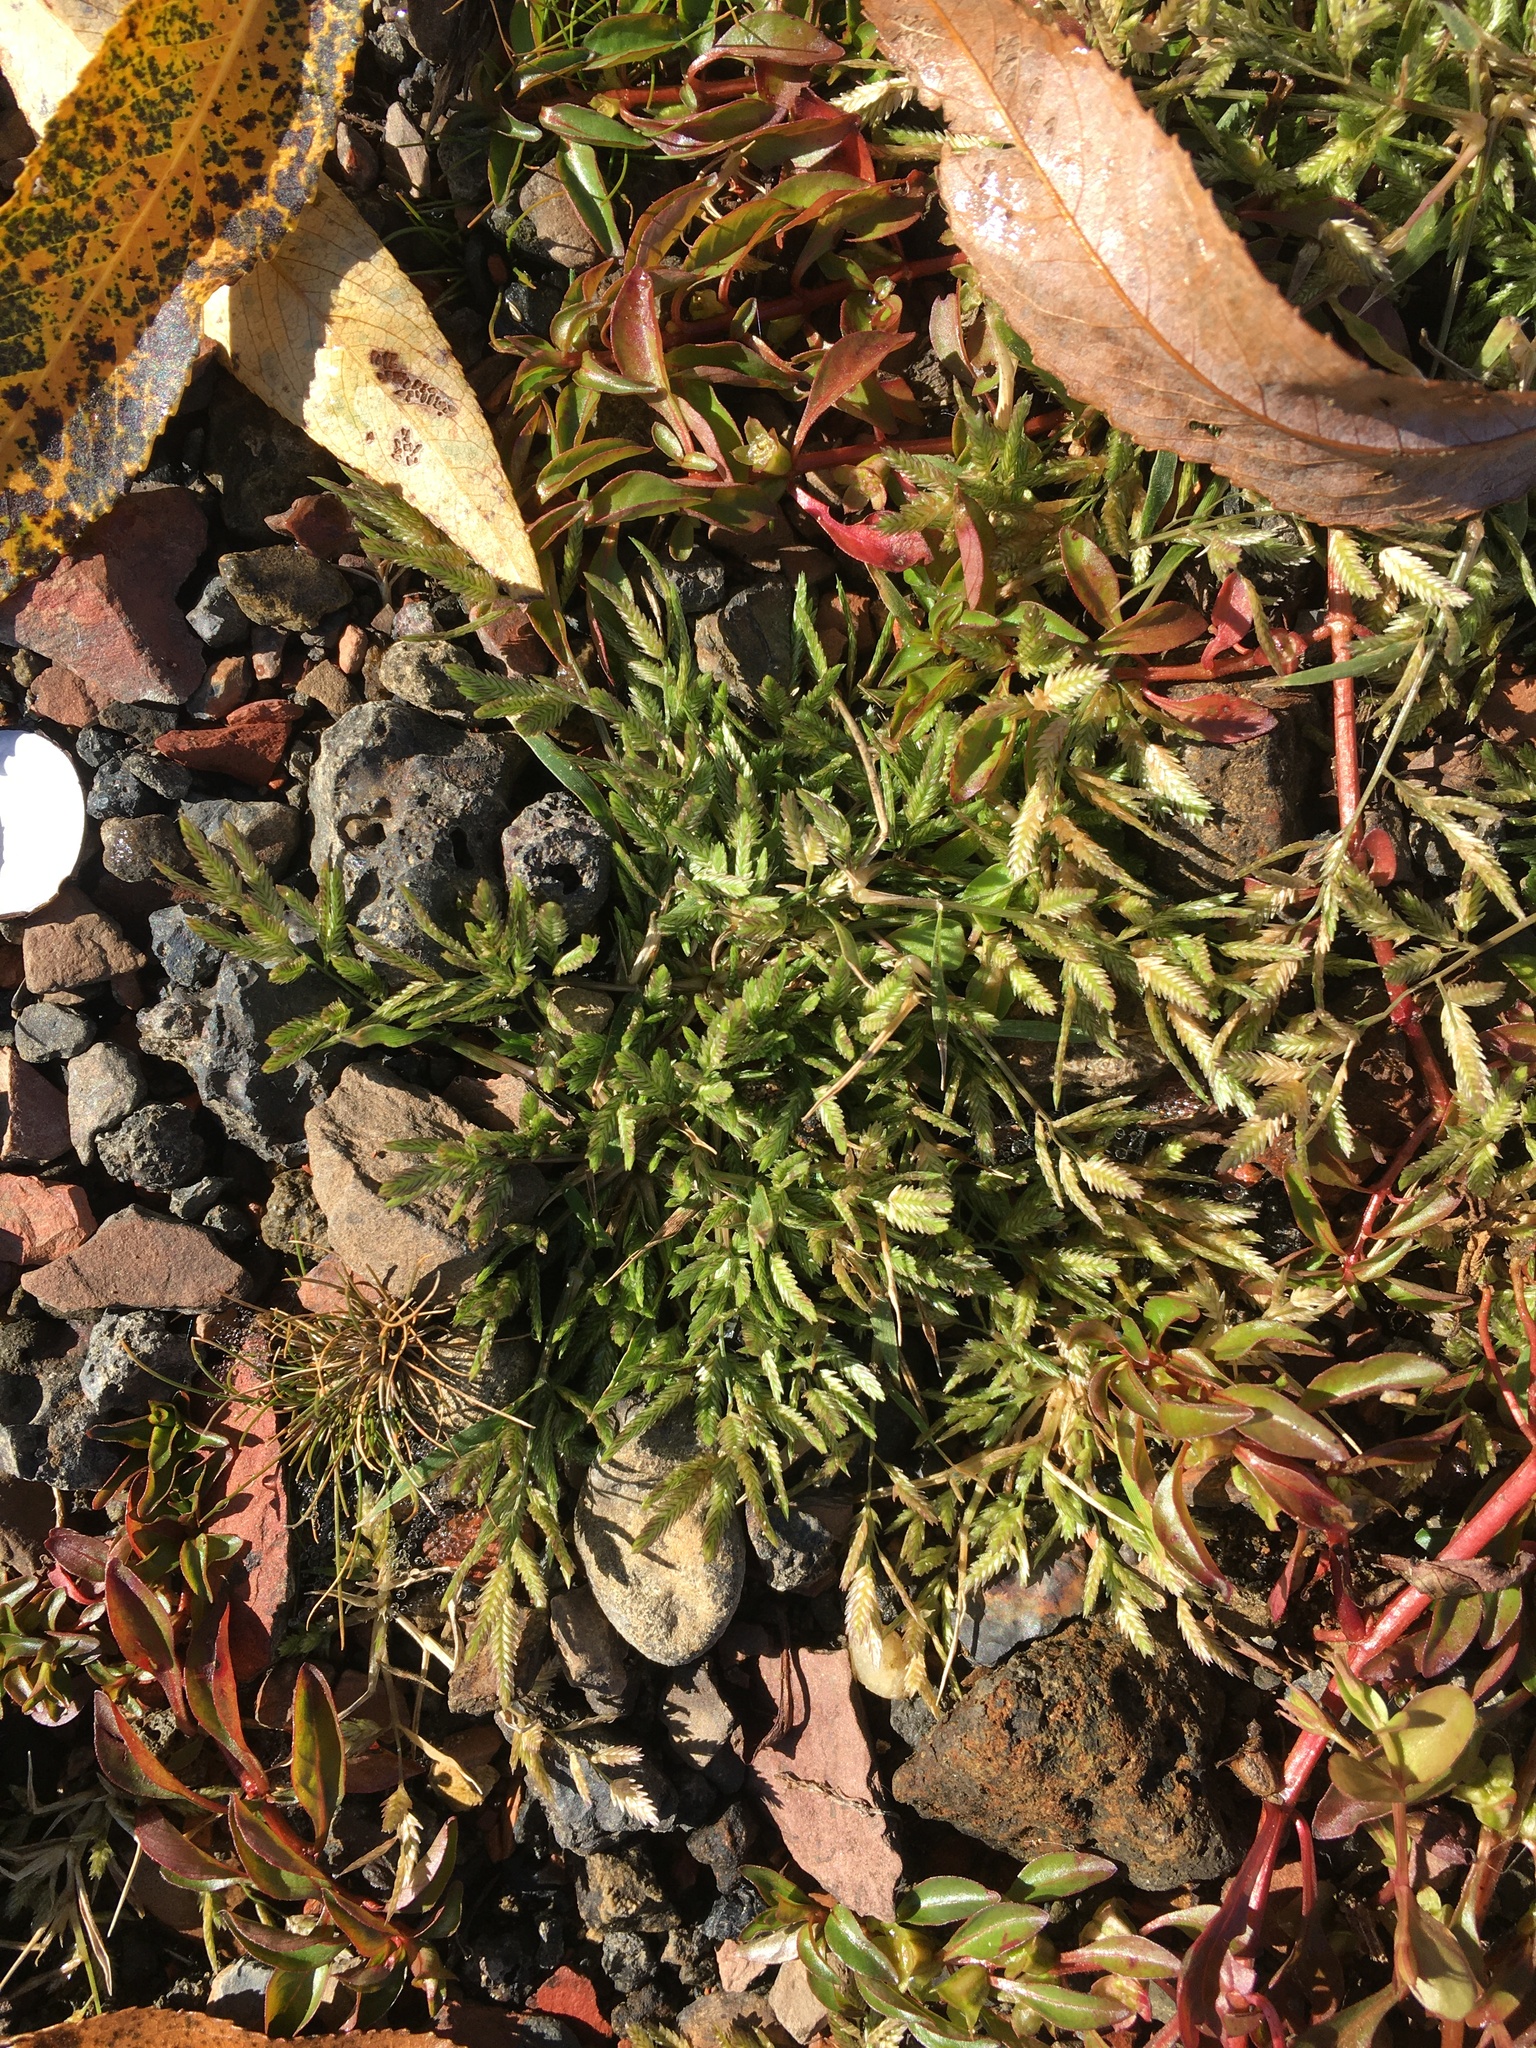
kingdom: Plantae
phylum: Tracheophyta
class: Liliopsida
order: Poales
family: Poaceae
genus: Eragrostis
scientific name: Eragrostis hypnoides
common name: Creeping love grass
